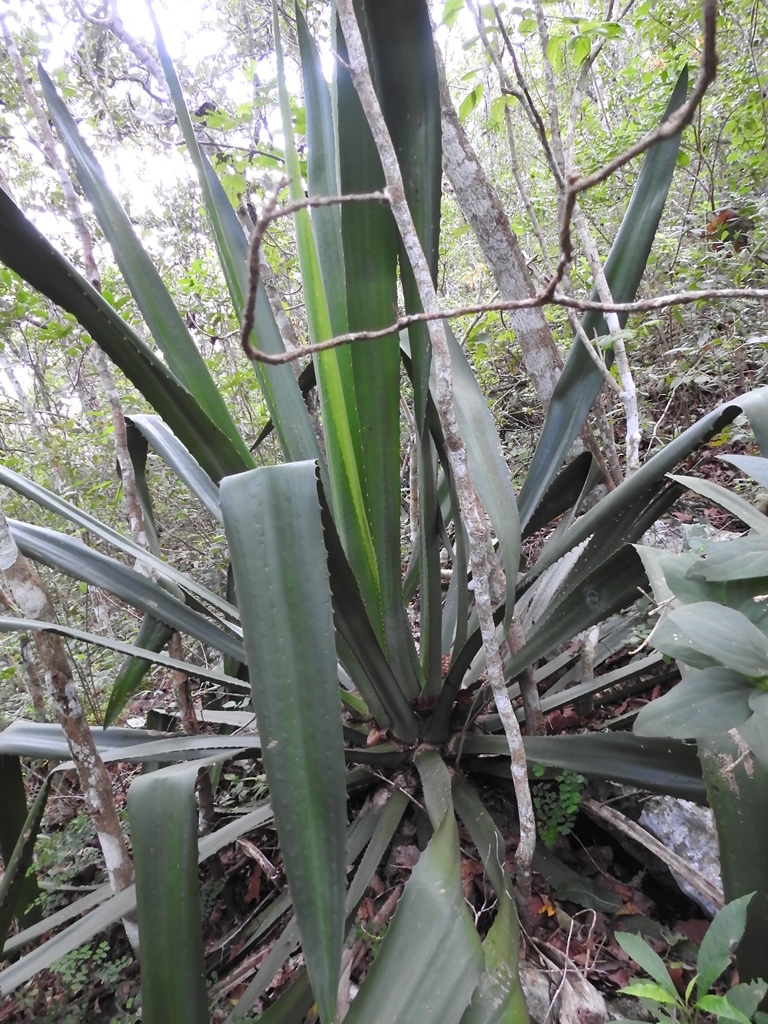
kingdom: Plantae
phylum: Tracheophyta
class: Liliopsida
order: Asparagales
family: Asparagaceae
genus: Furcraea
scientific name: Furcraea guatemalensis
